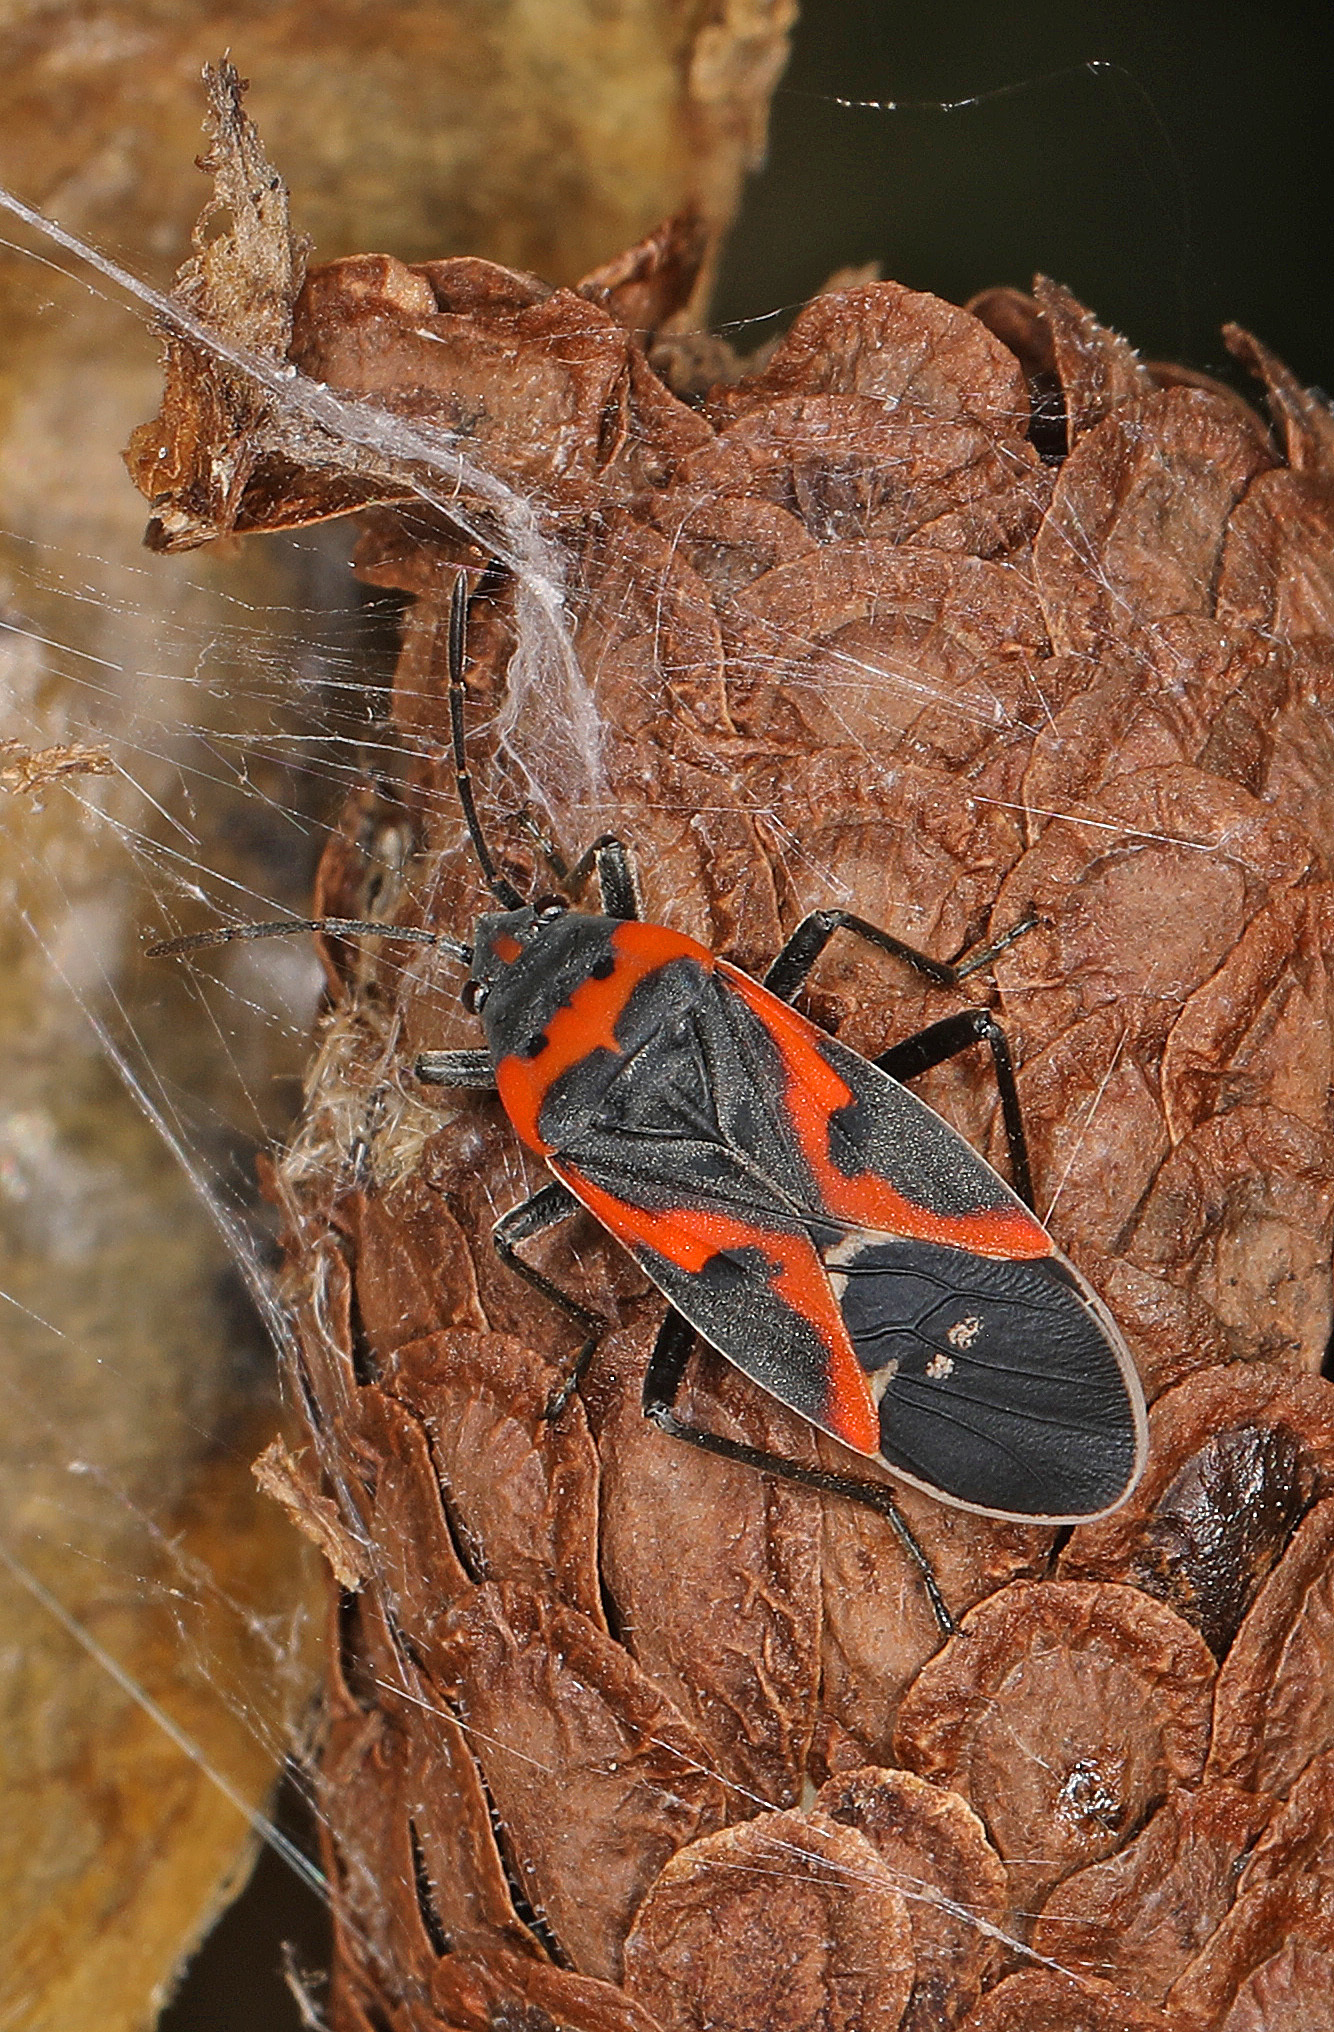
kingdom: Animalia
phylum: Arthropoda
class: Insecta
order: Hemiptera
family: Lygaeidae
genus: Lygaeus
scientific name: Lygaeus kalmii
